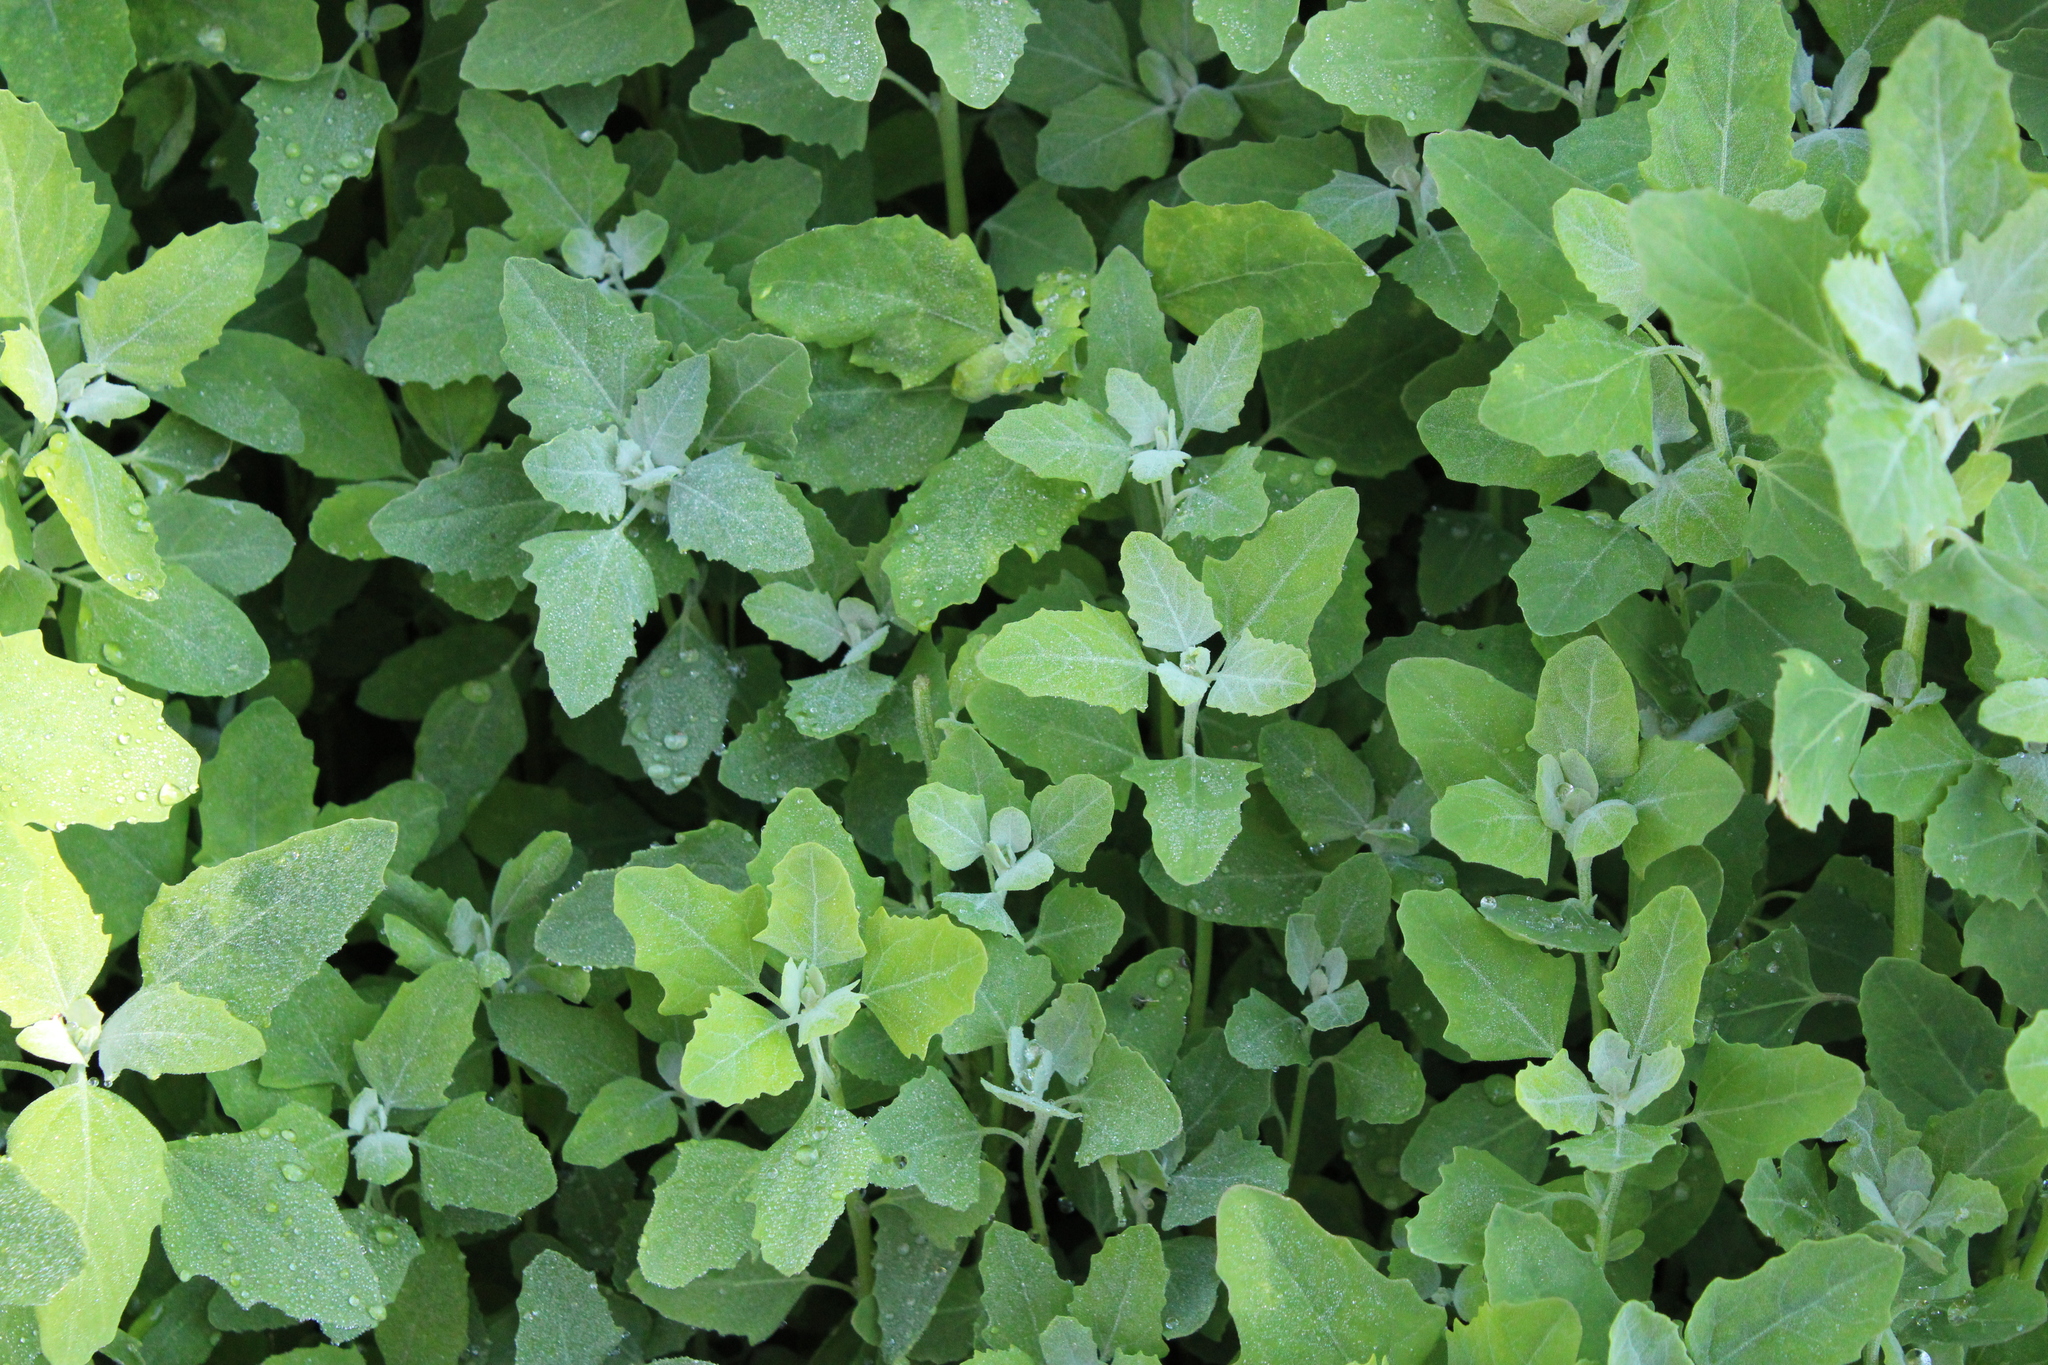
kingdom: Plantae
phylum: Tracheophyta
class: Magnoliopsida
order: Caryophyllales
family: Amaranthaceae
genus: Chenopodium
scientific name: Chenopodium album
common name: Fat-hen
